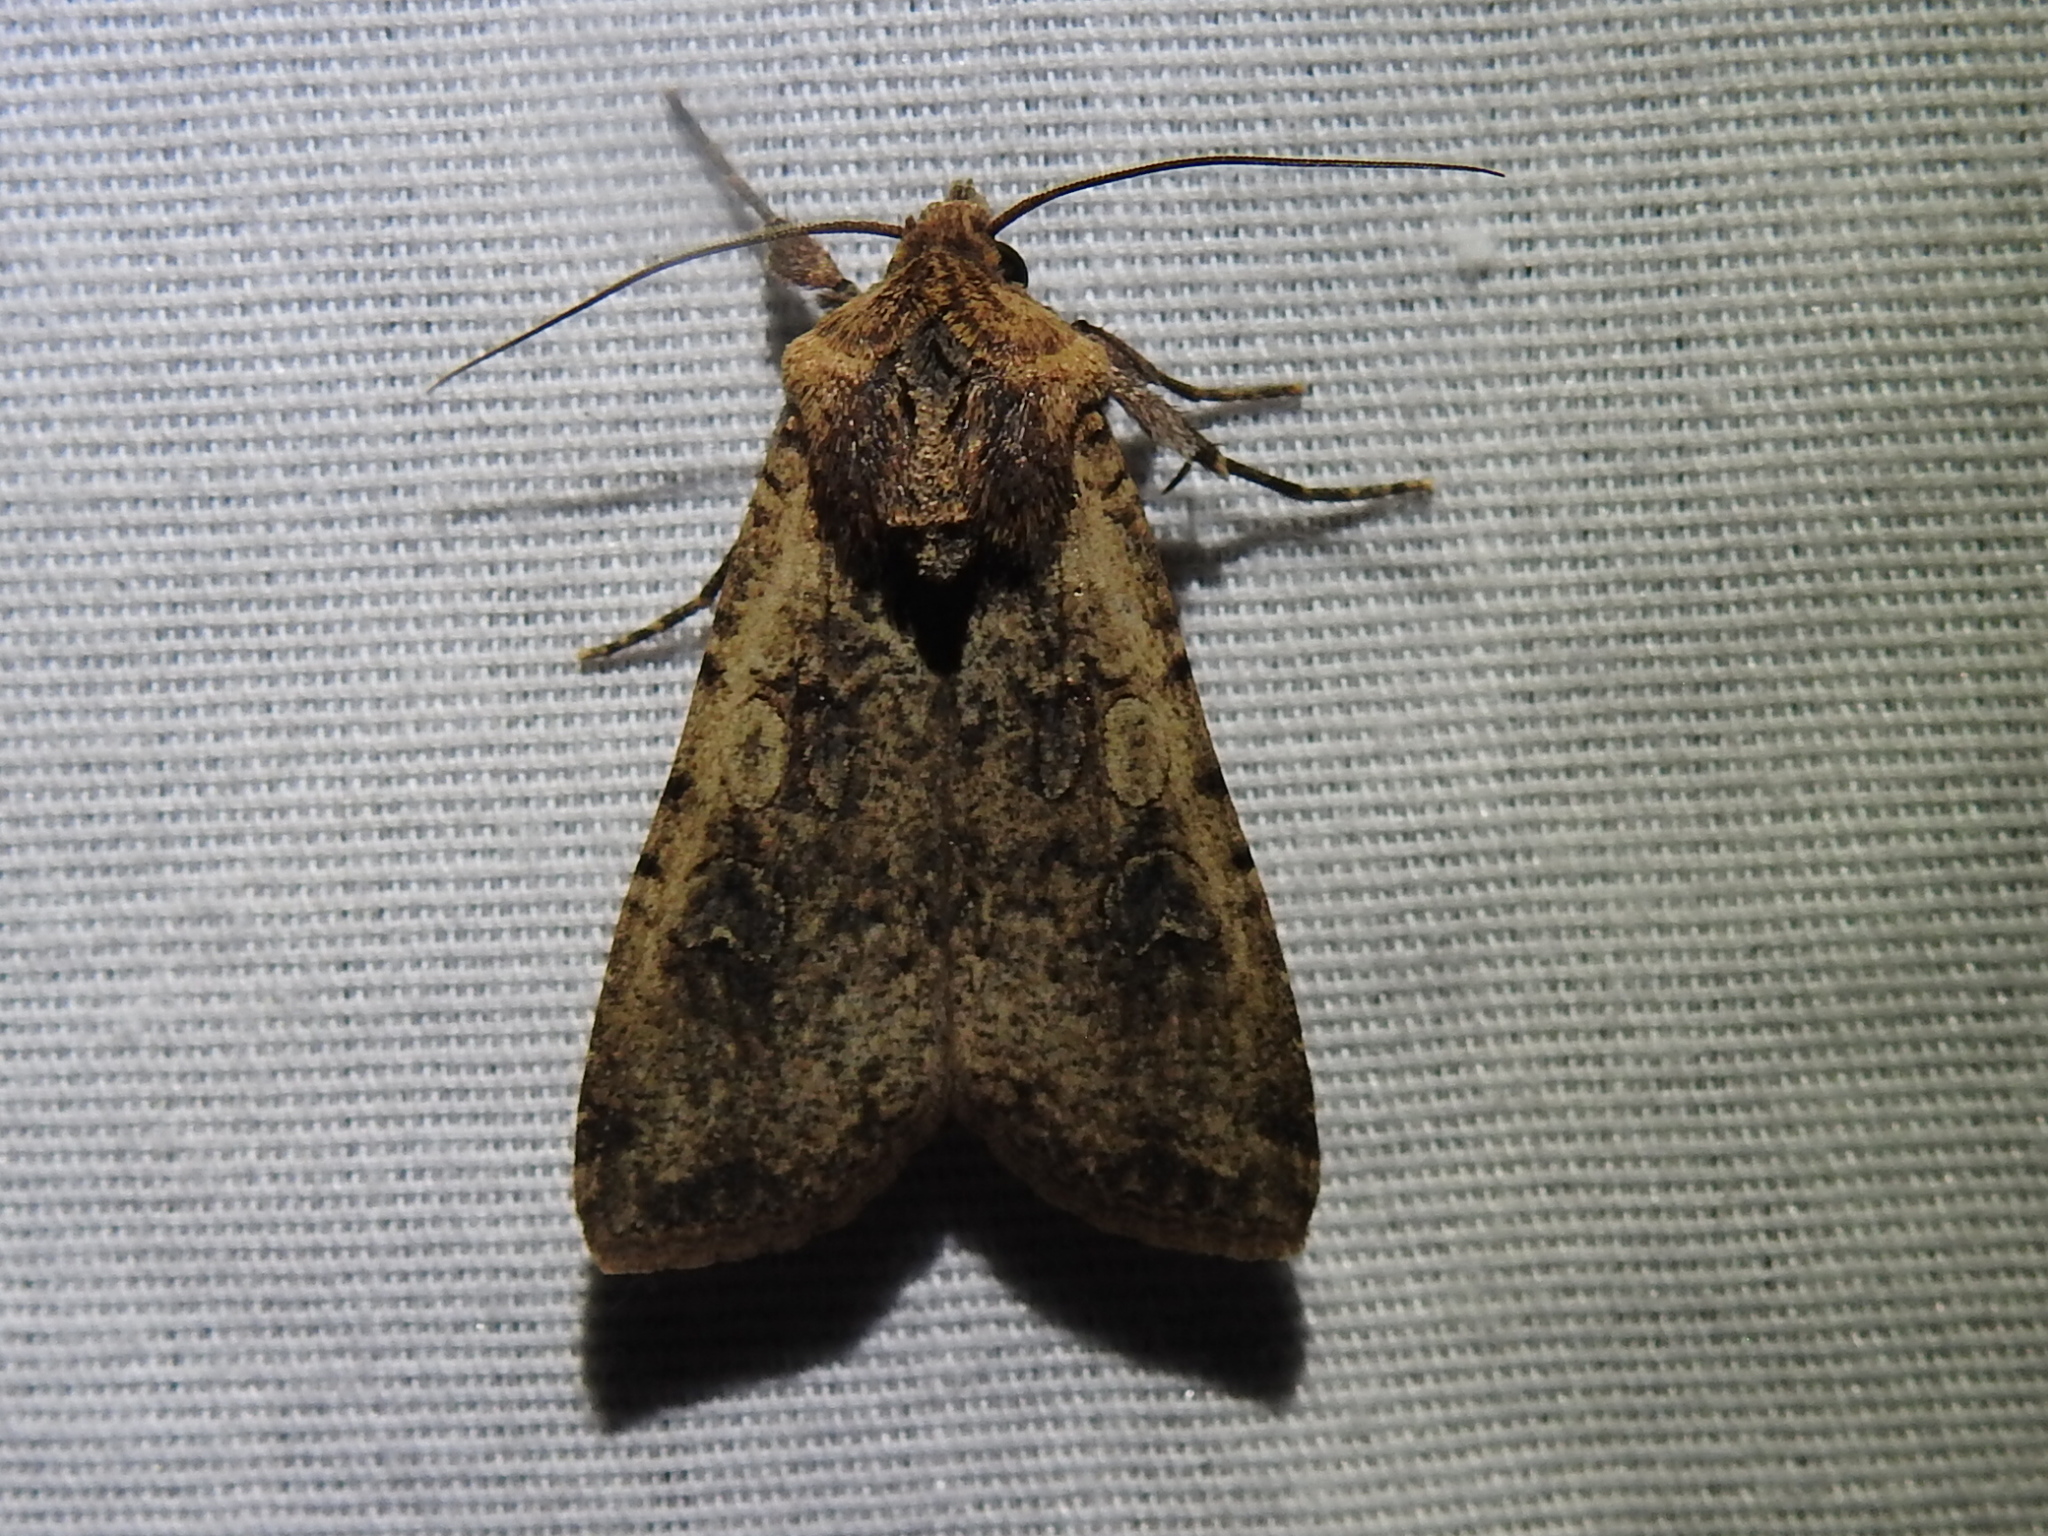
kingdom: Animalia
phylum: Arthropoda
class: Insecta
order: Lepidoptera
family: Noctuidae
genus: Peridroma
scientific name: Peridroma saucia
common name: Pearly underwing
